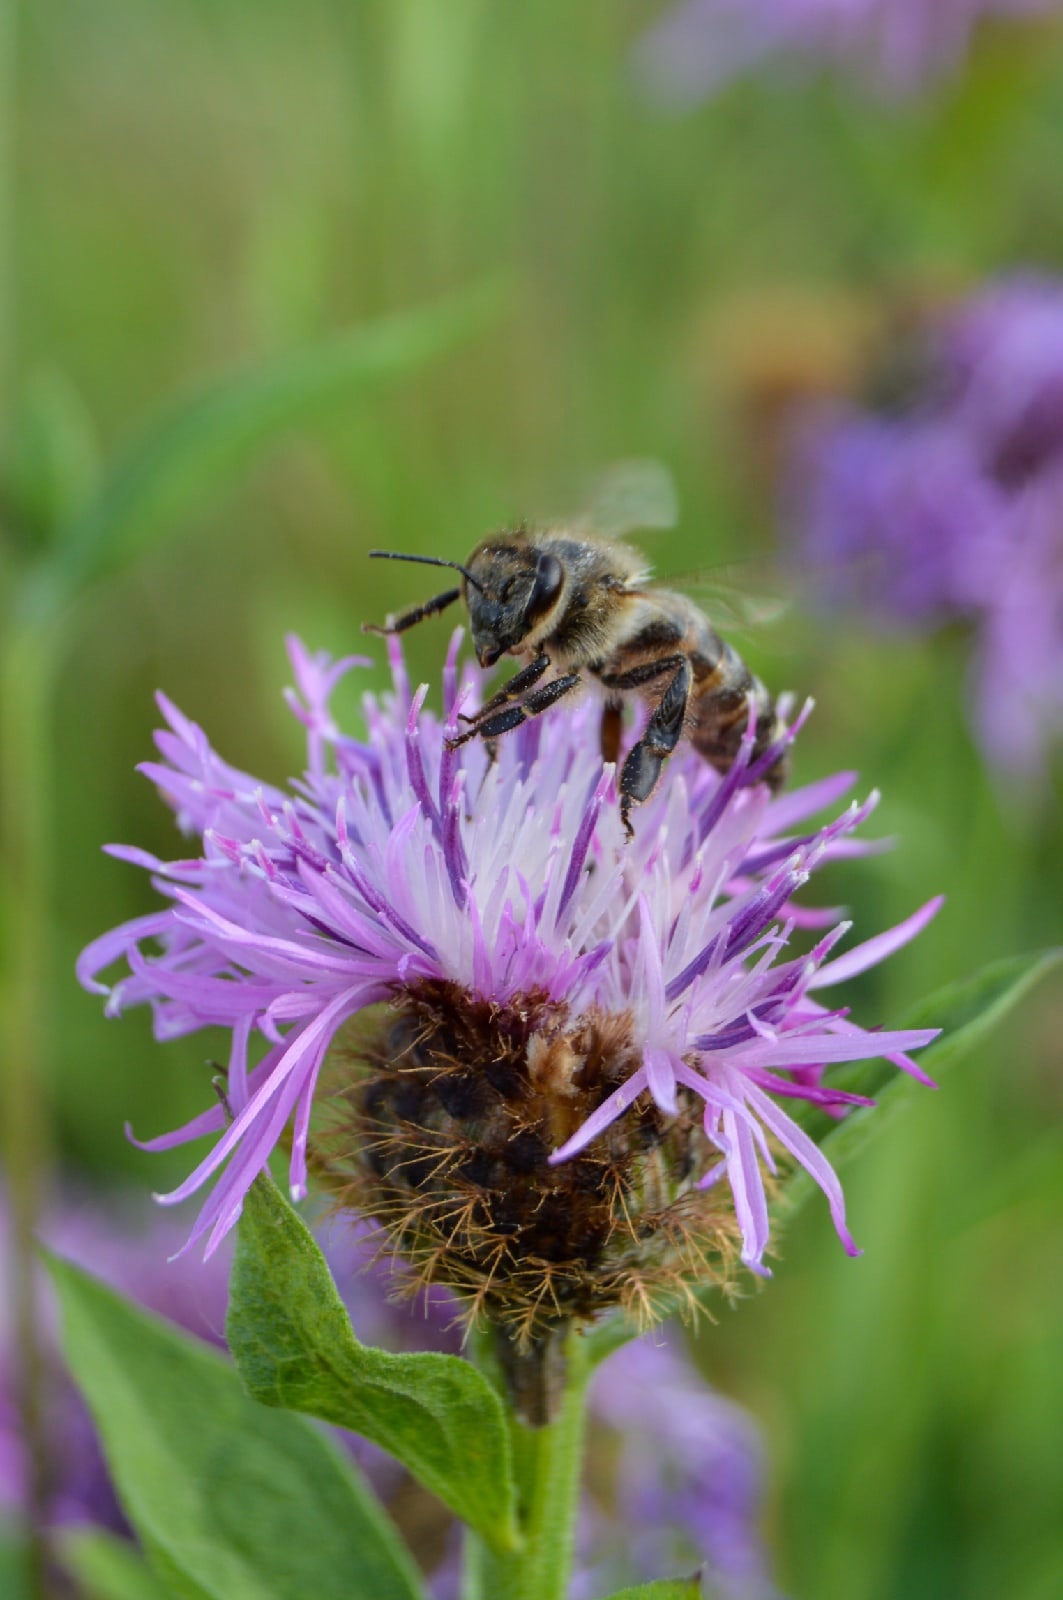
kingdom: Animalia
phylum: Arthropoda
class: Insecta
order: Hymenoptera
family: Apidae
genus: Apis
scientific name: Apis mellifera
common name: Honey bee
